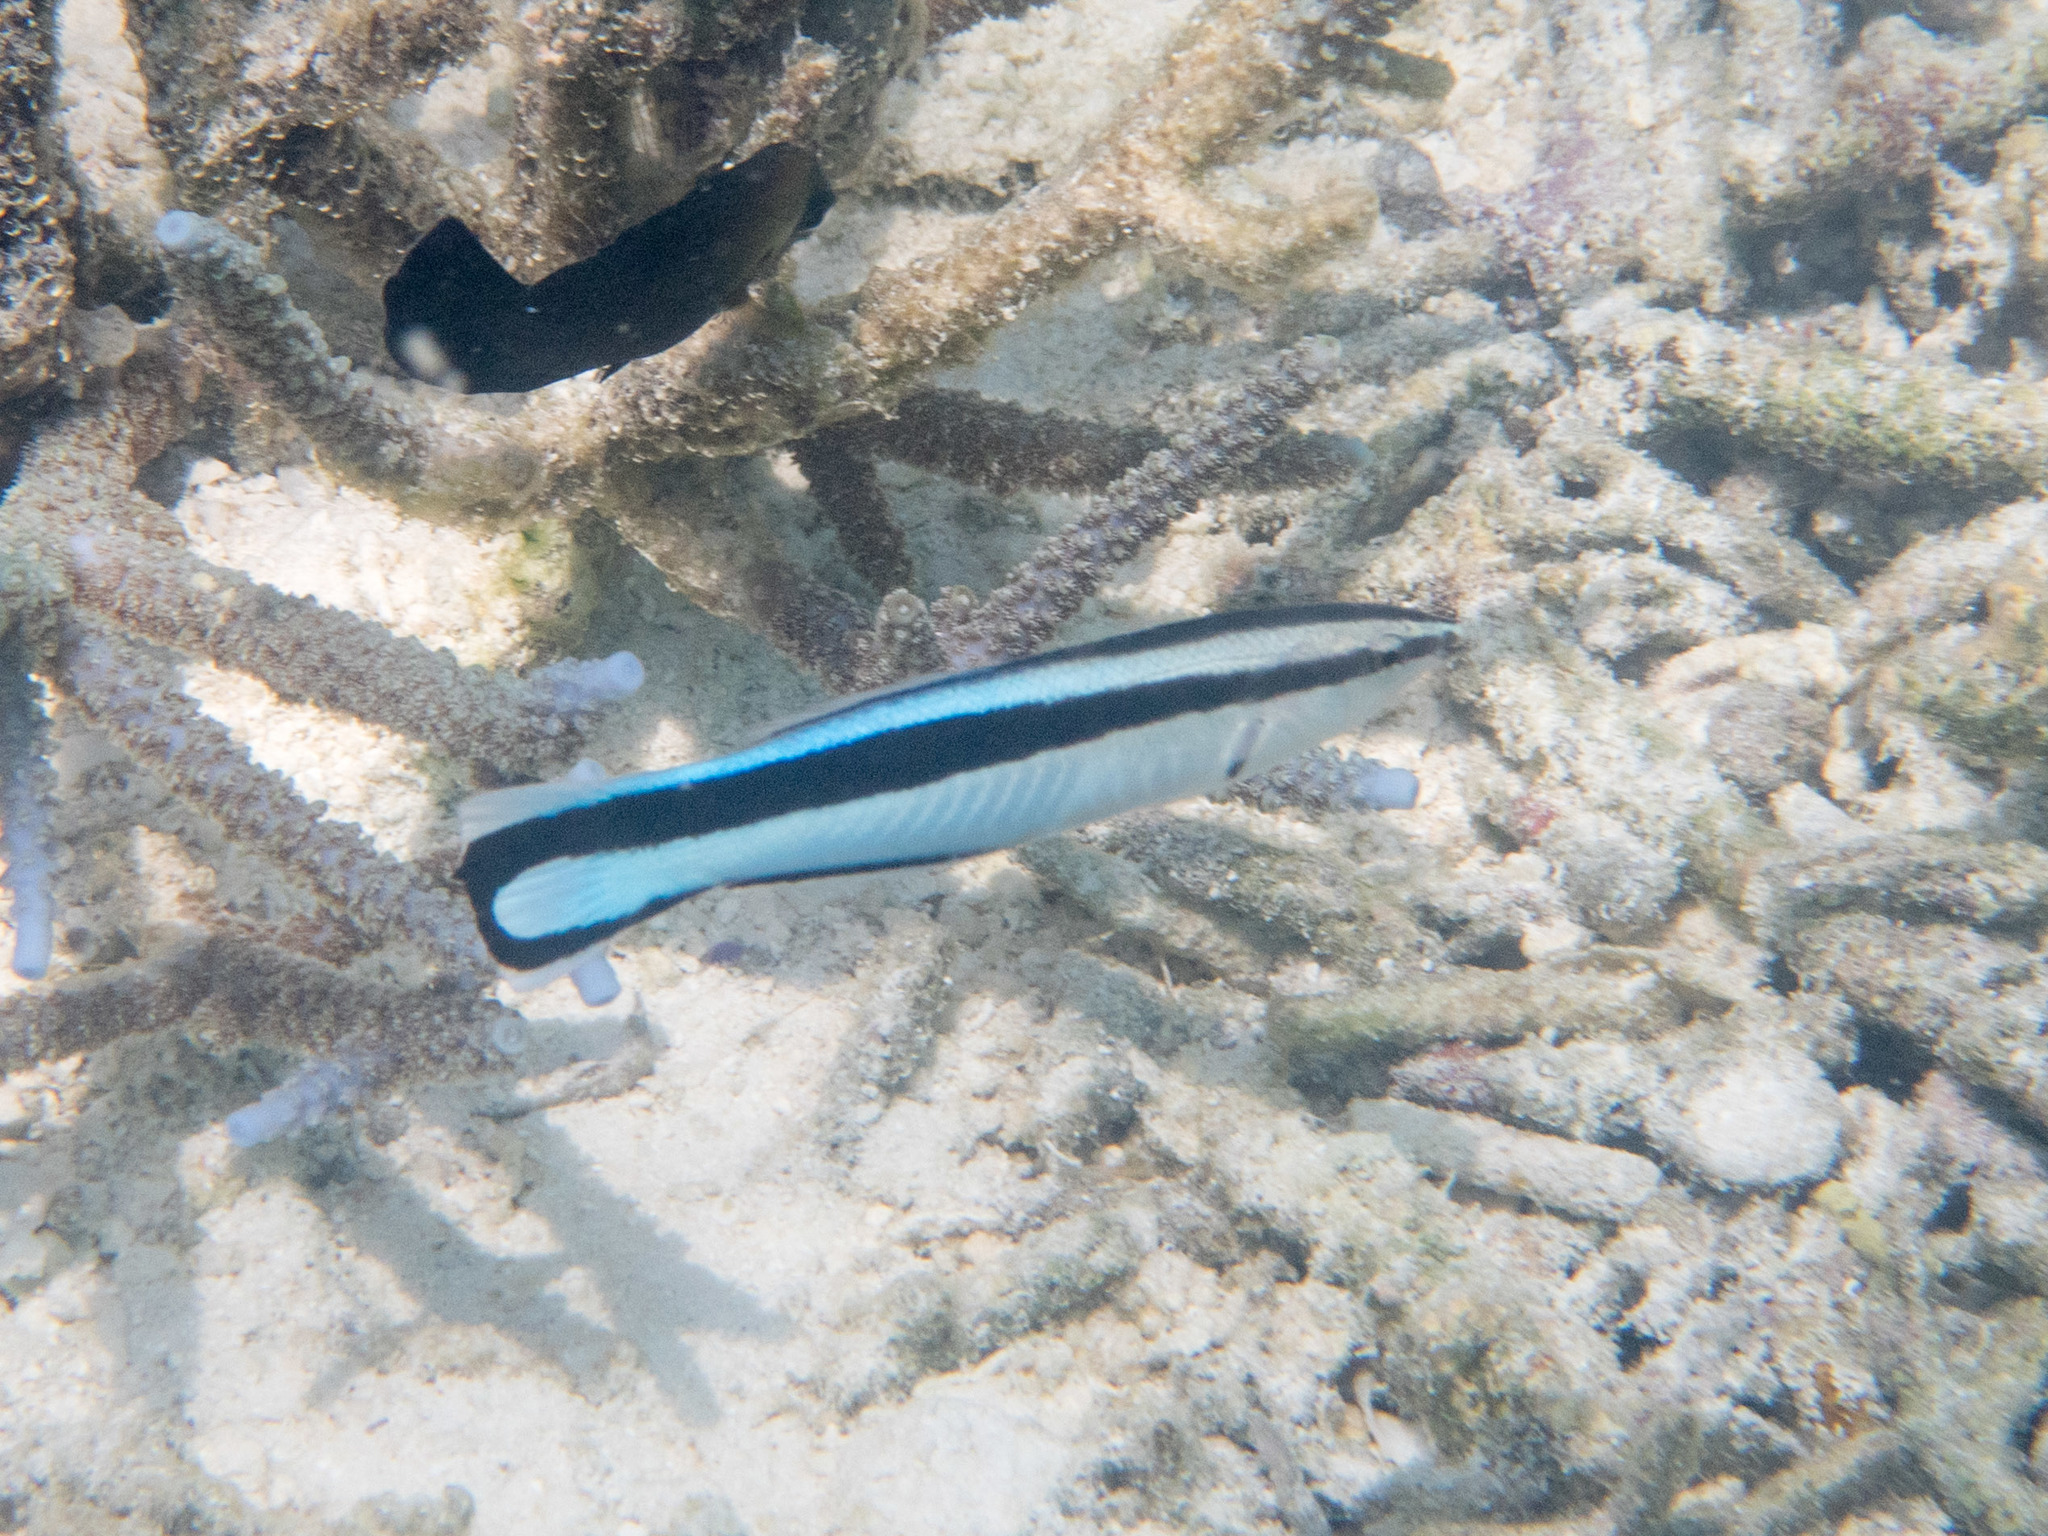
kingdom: Animalia
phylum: Chordata
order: Perciformes
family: Labridae
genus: Labroides
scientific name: Labroides dimidiatus
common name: Blue diesel wrasse
